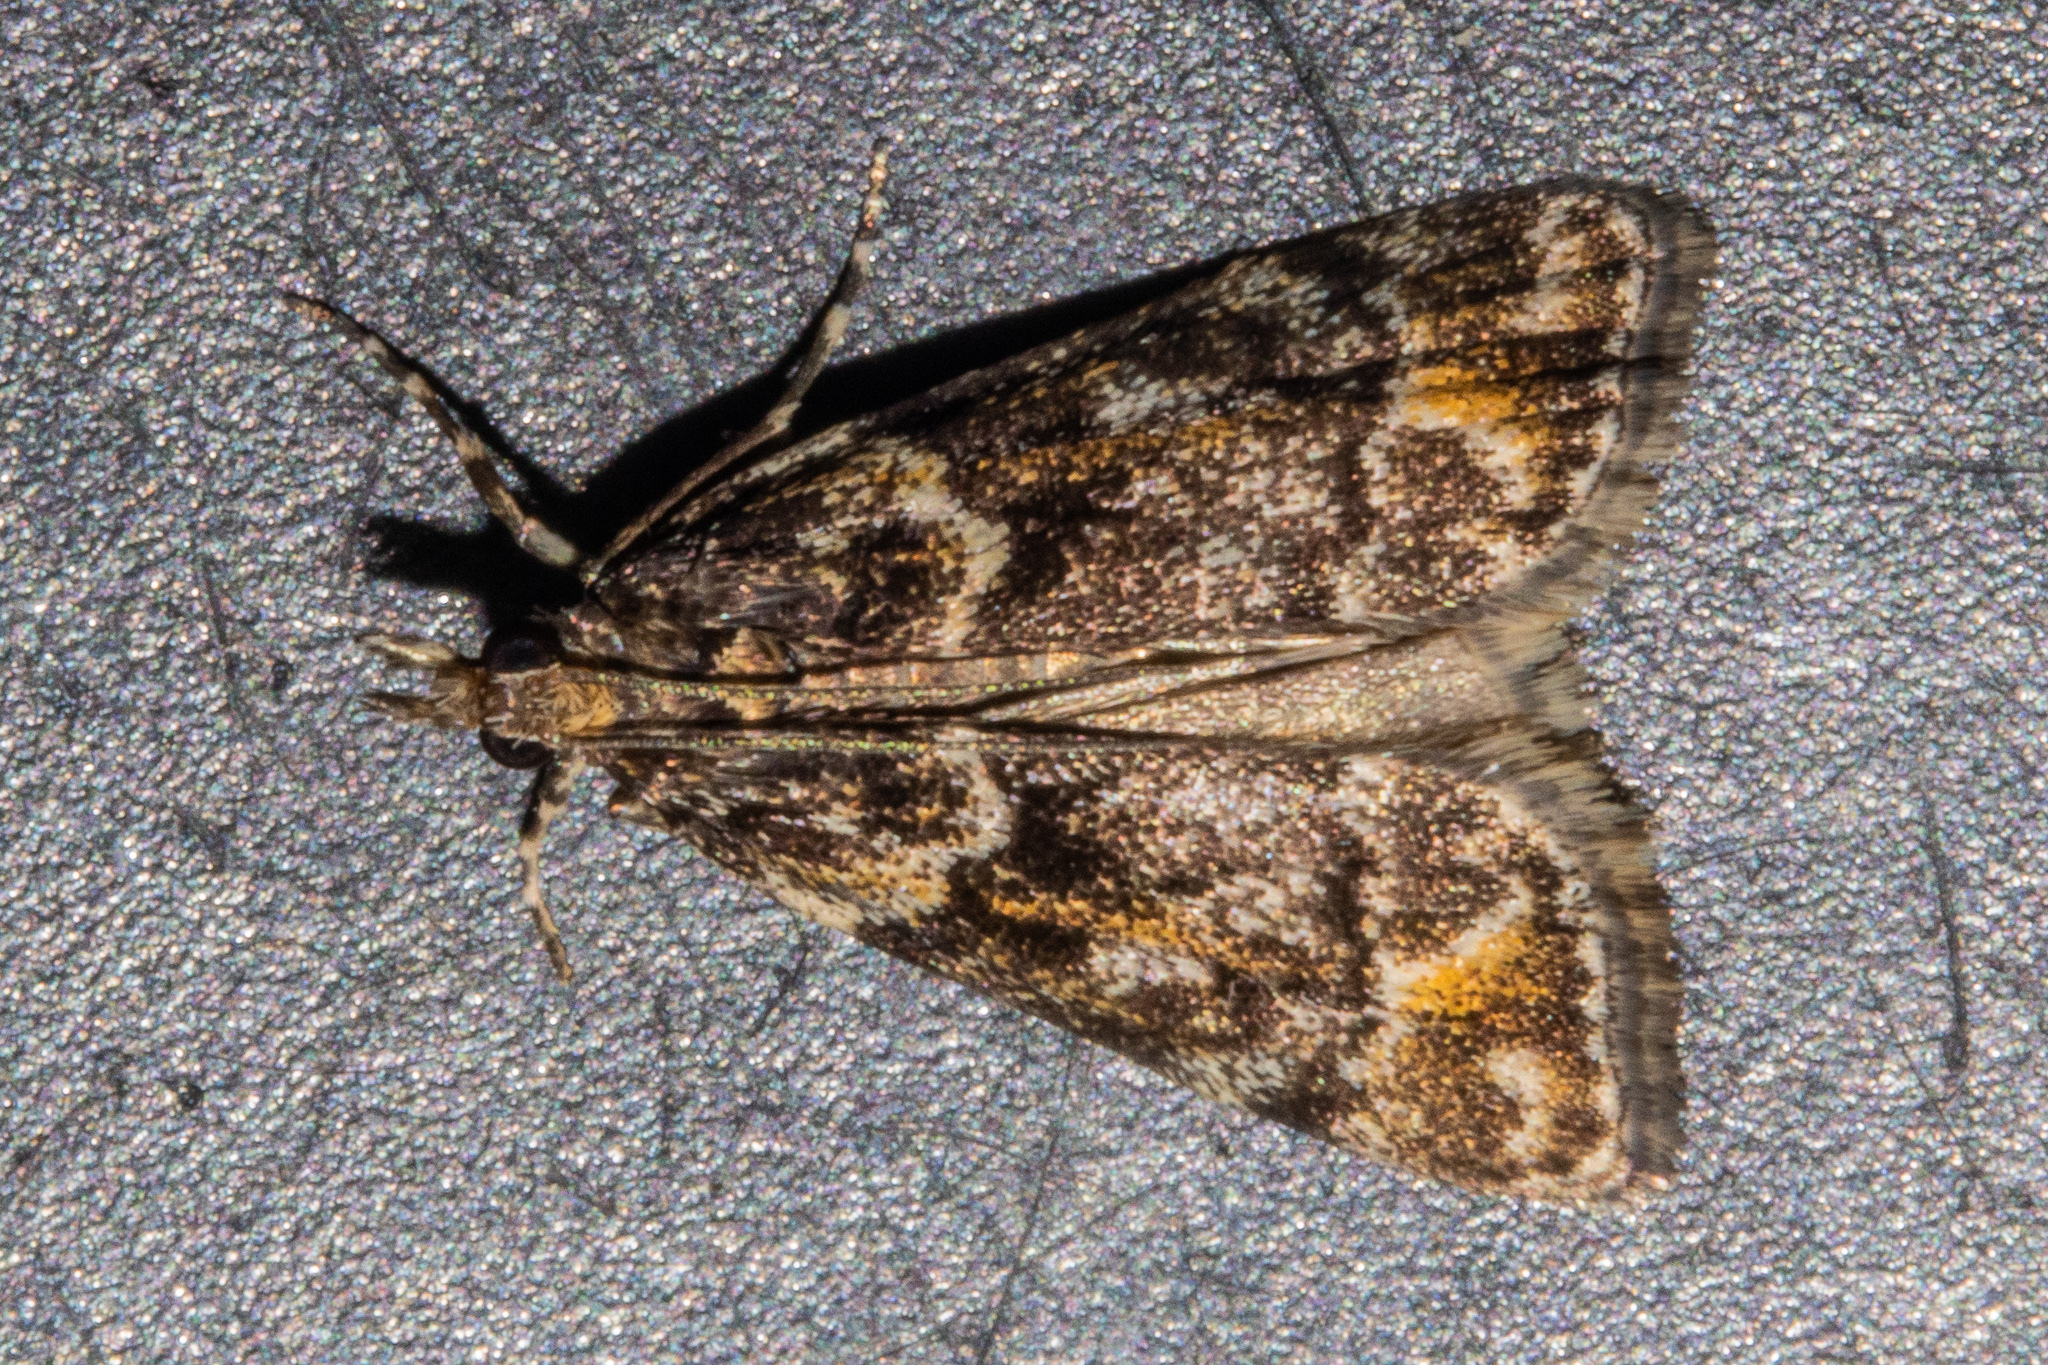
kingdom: Animalia
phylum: Arthropoda
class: Insecta
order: Lepidoptera
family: Crambidae
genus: Eudonia
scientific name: Eudonia minualis
